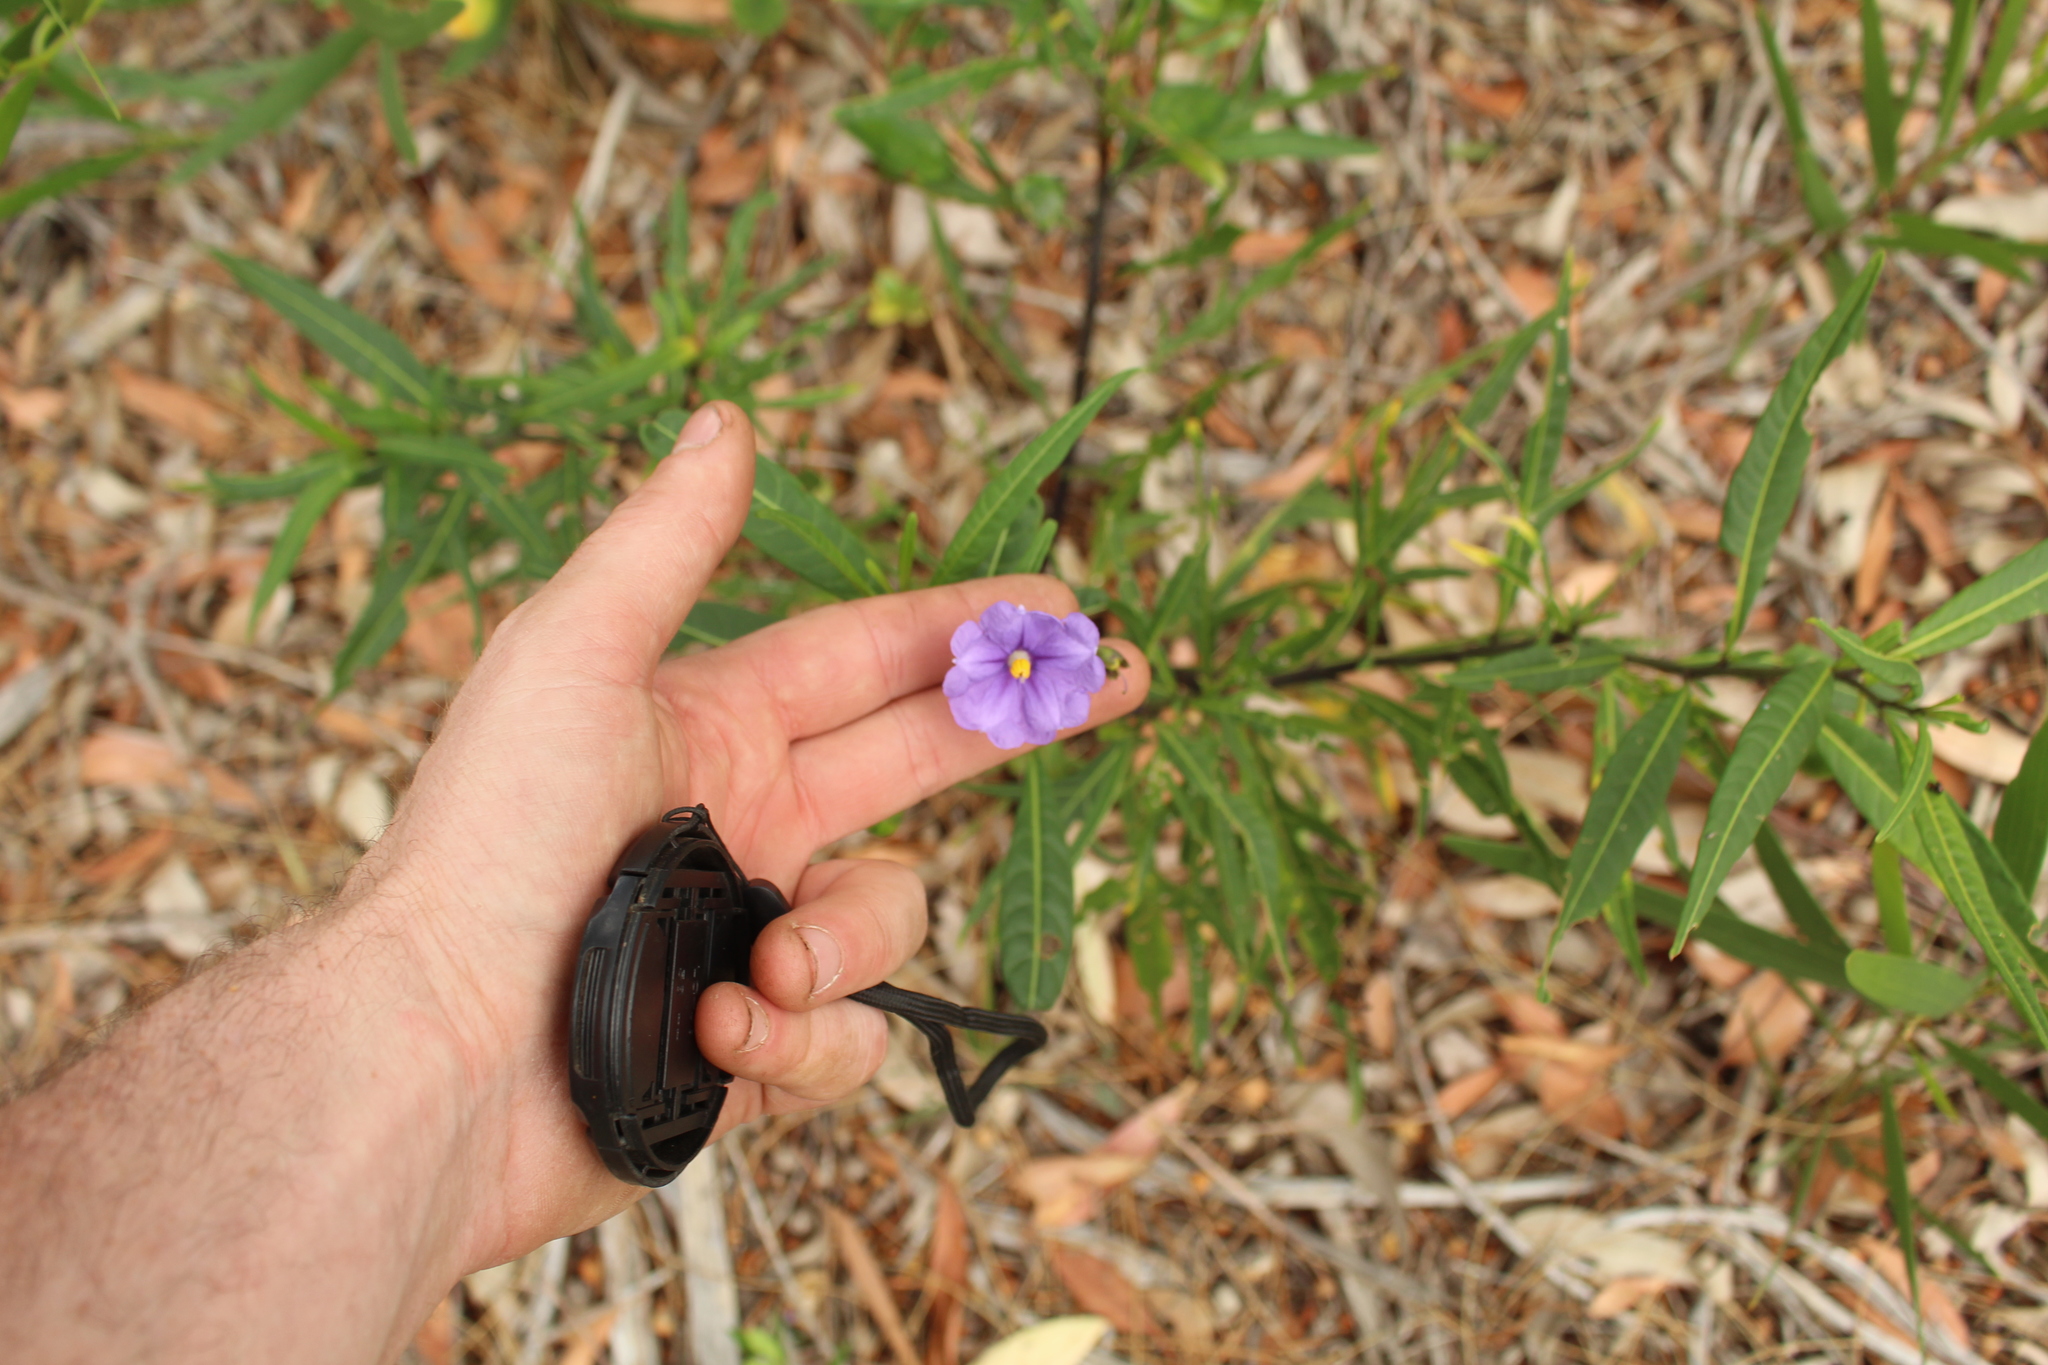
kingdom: Plantae
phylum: Tracheophyta
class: Magnoliopsida
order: Solanales
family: Solanaceae
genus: Solanum
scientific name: Solanum laciniatum
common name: Kangaroo-apple
